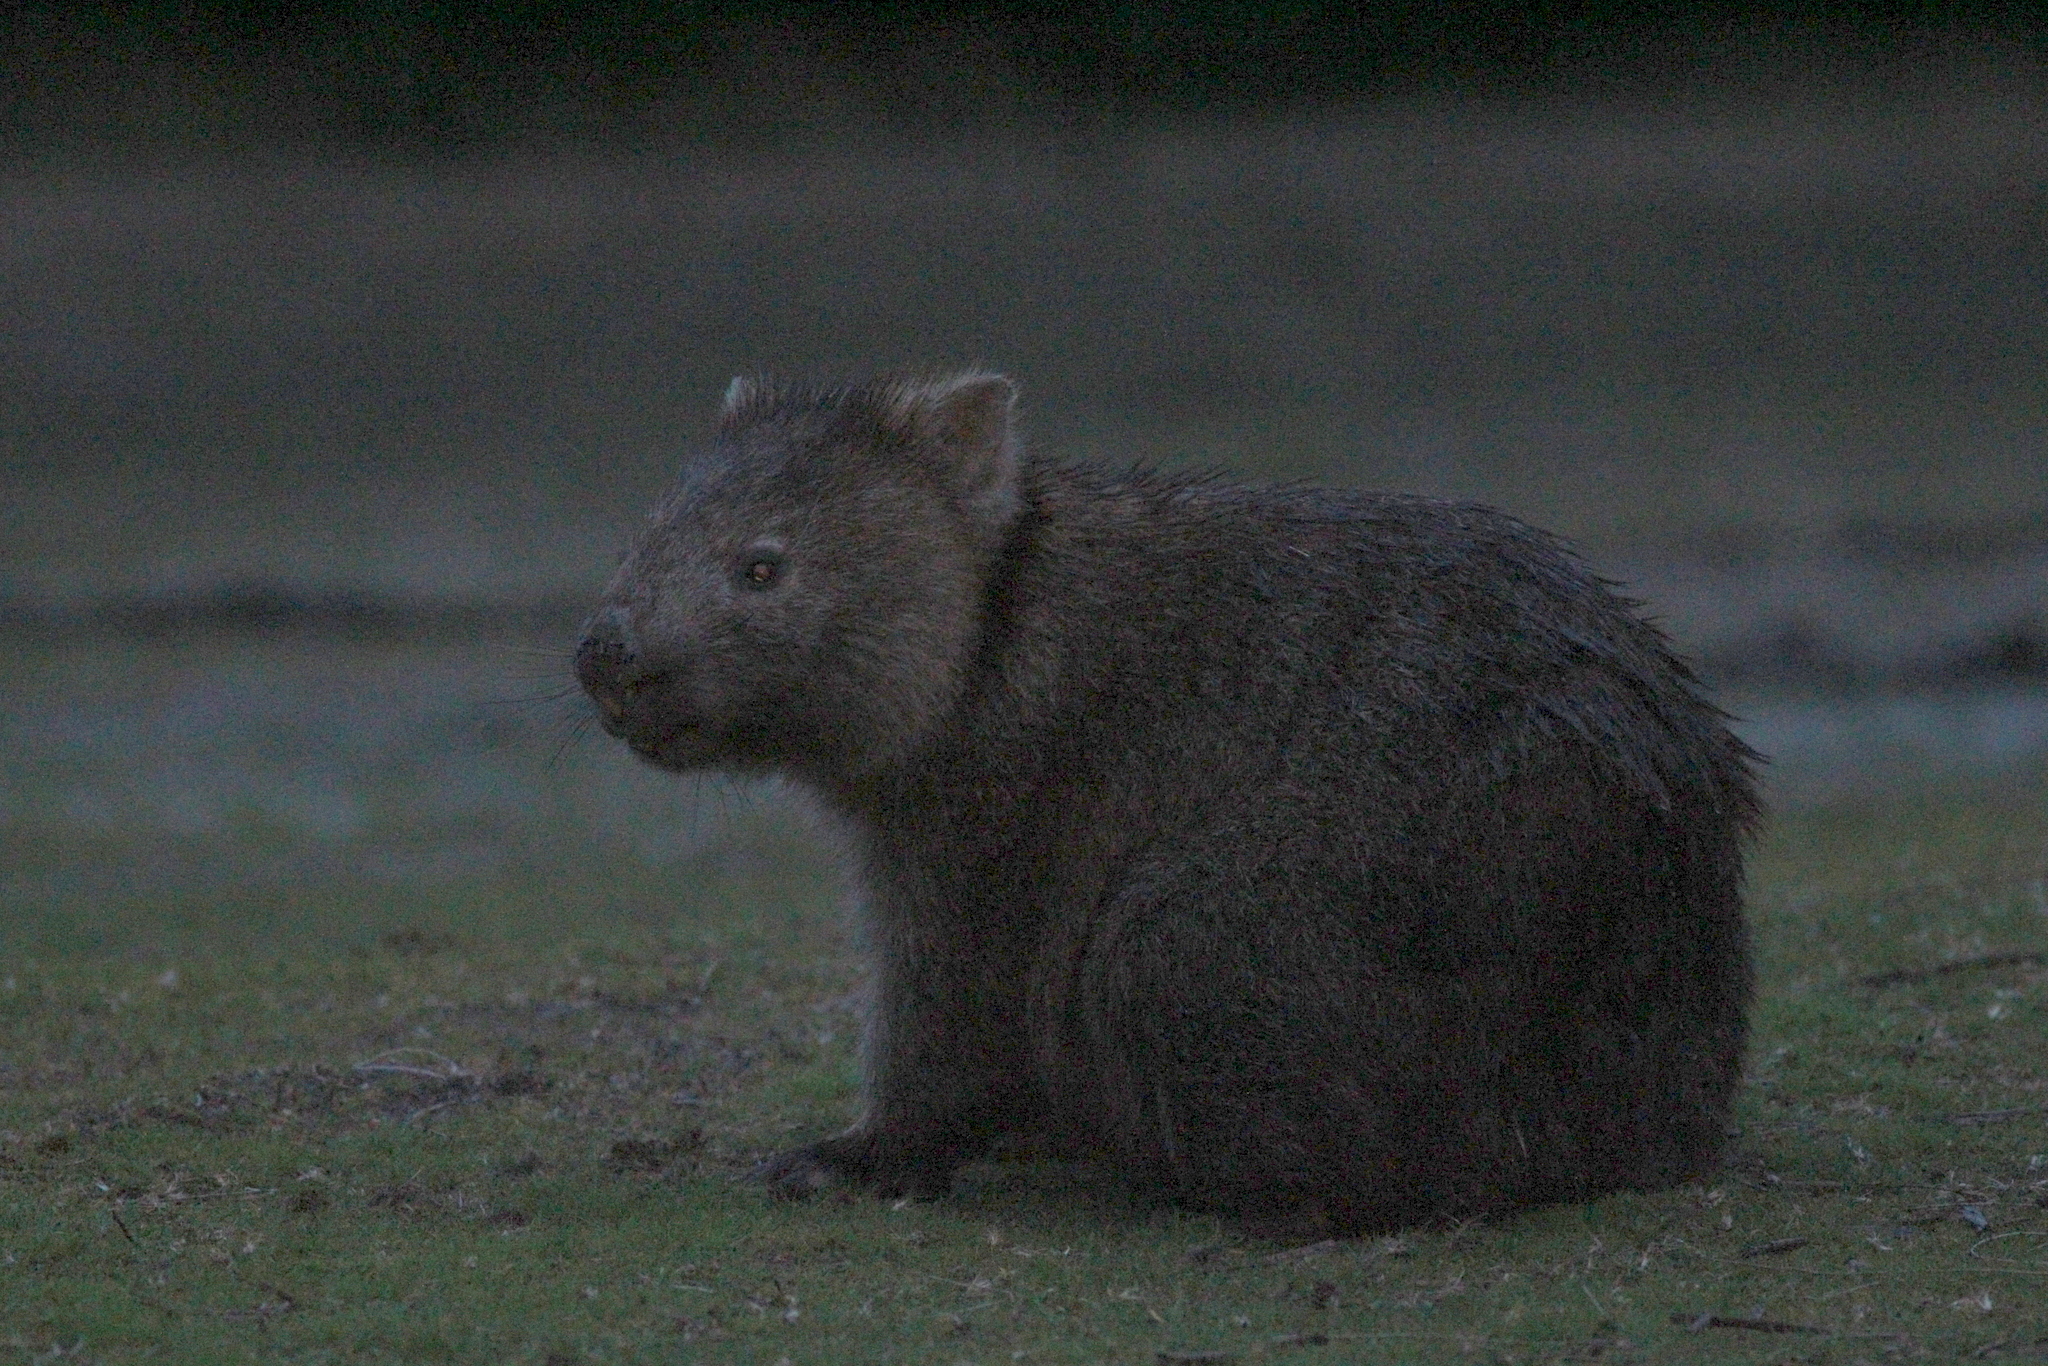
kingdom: Animalia
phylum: Chordata
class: Mammalia
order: Diprotodontia
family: Vombatidae
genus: Vombatus
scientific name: Vombatus ursinus
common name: Common wombat
